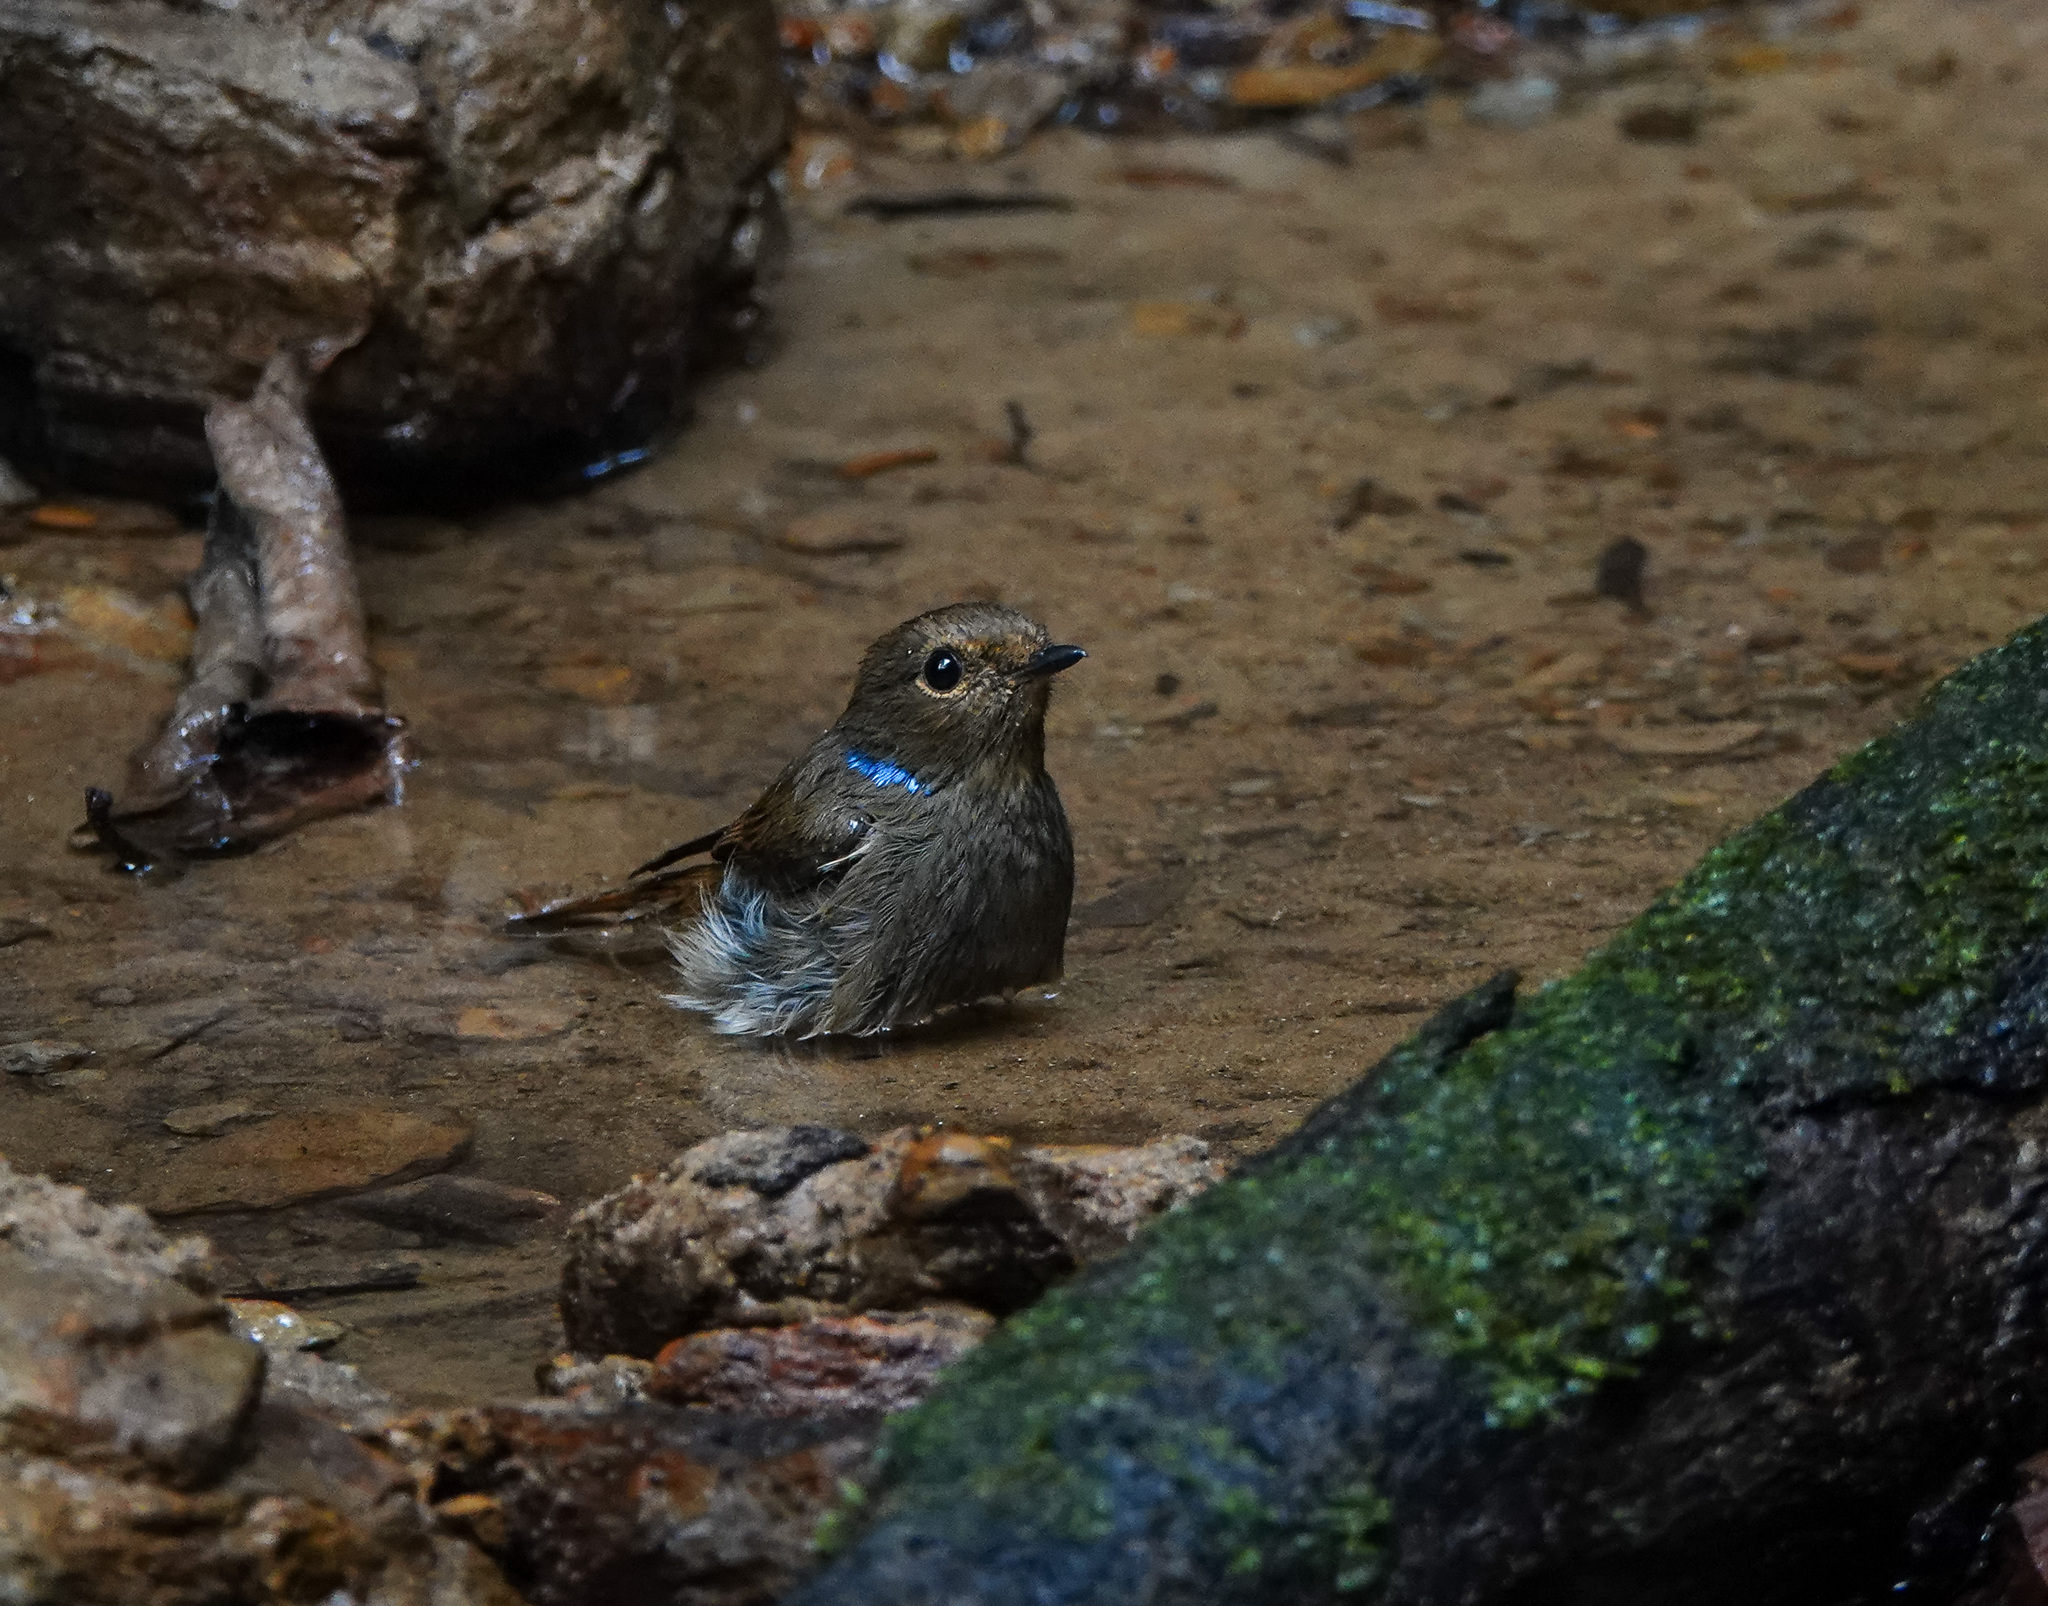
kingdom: Animalia
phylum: Chordata
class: Aves
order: Passeriformes
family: Muscicapidae
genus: Niltava
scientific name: Niltava macgrigoriae
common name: Small niltava
